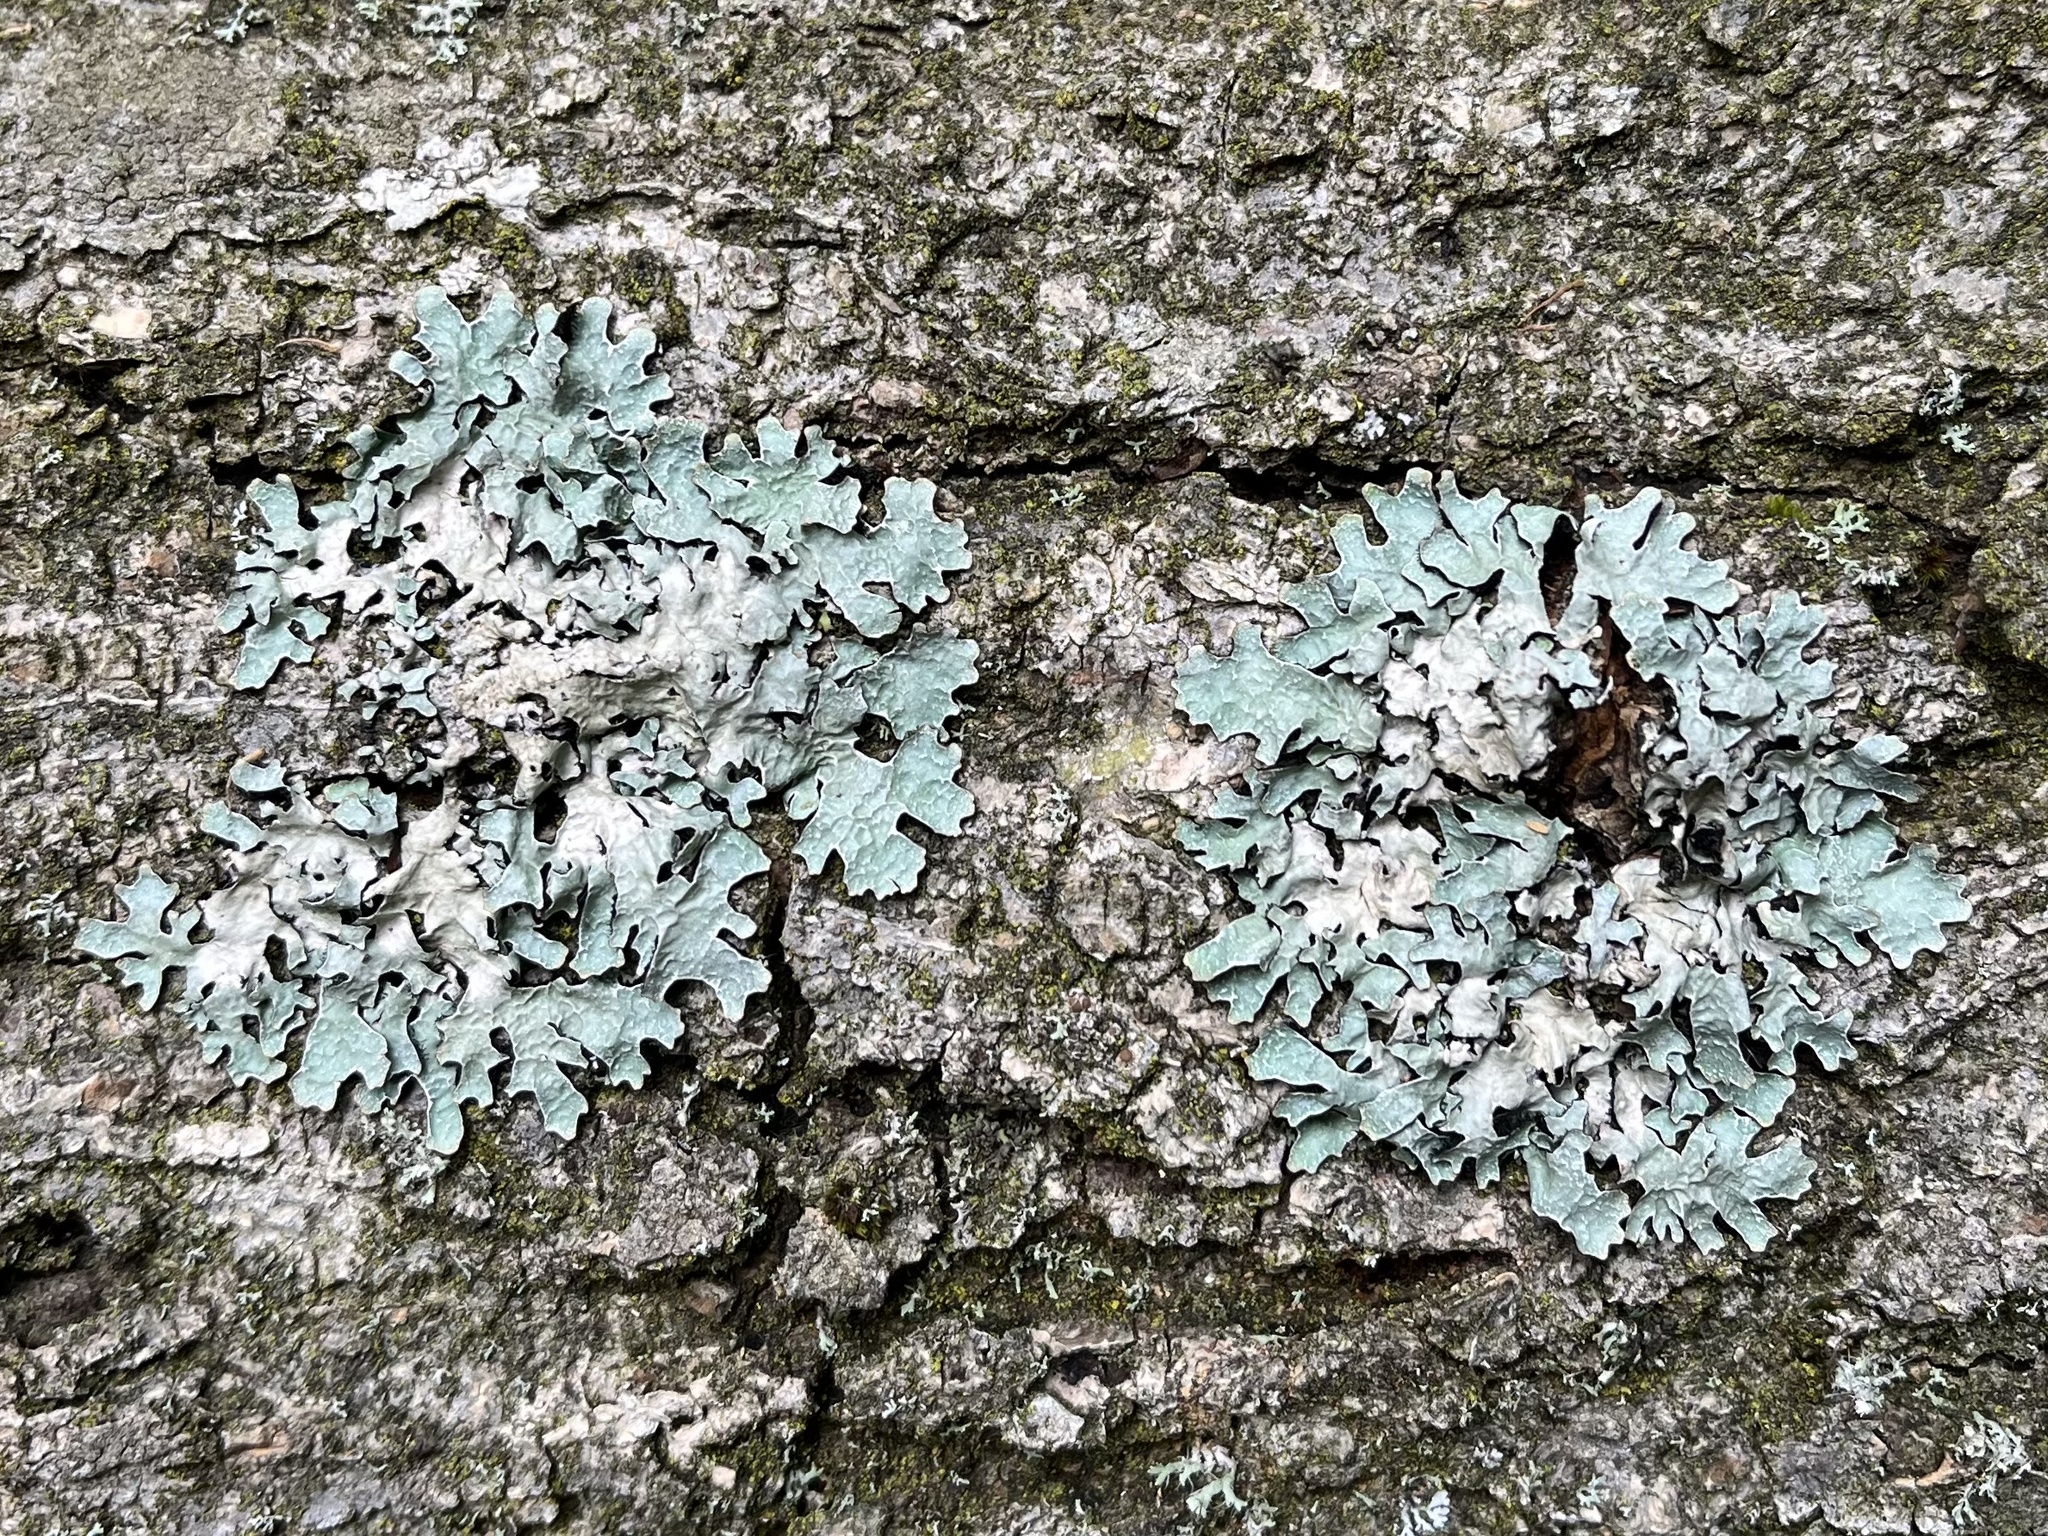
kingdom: Fungi
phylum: Ascomycota
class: Lecanoromycetes
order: Lecanorales
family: Parmeliaceae
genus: Parmelia
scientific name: Parmelia sulcata
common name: Netted shield lichen
